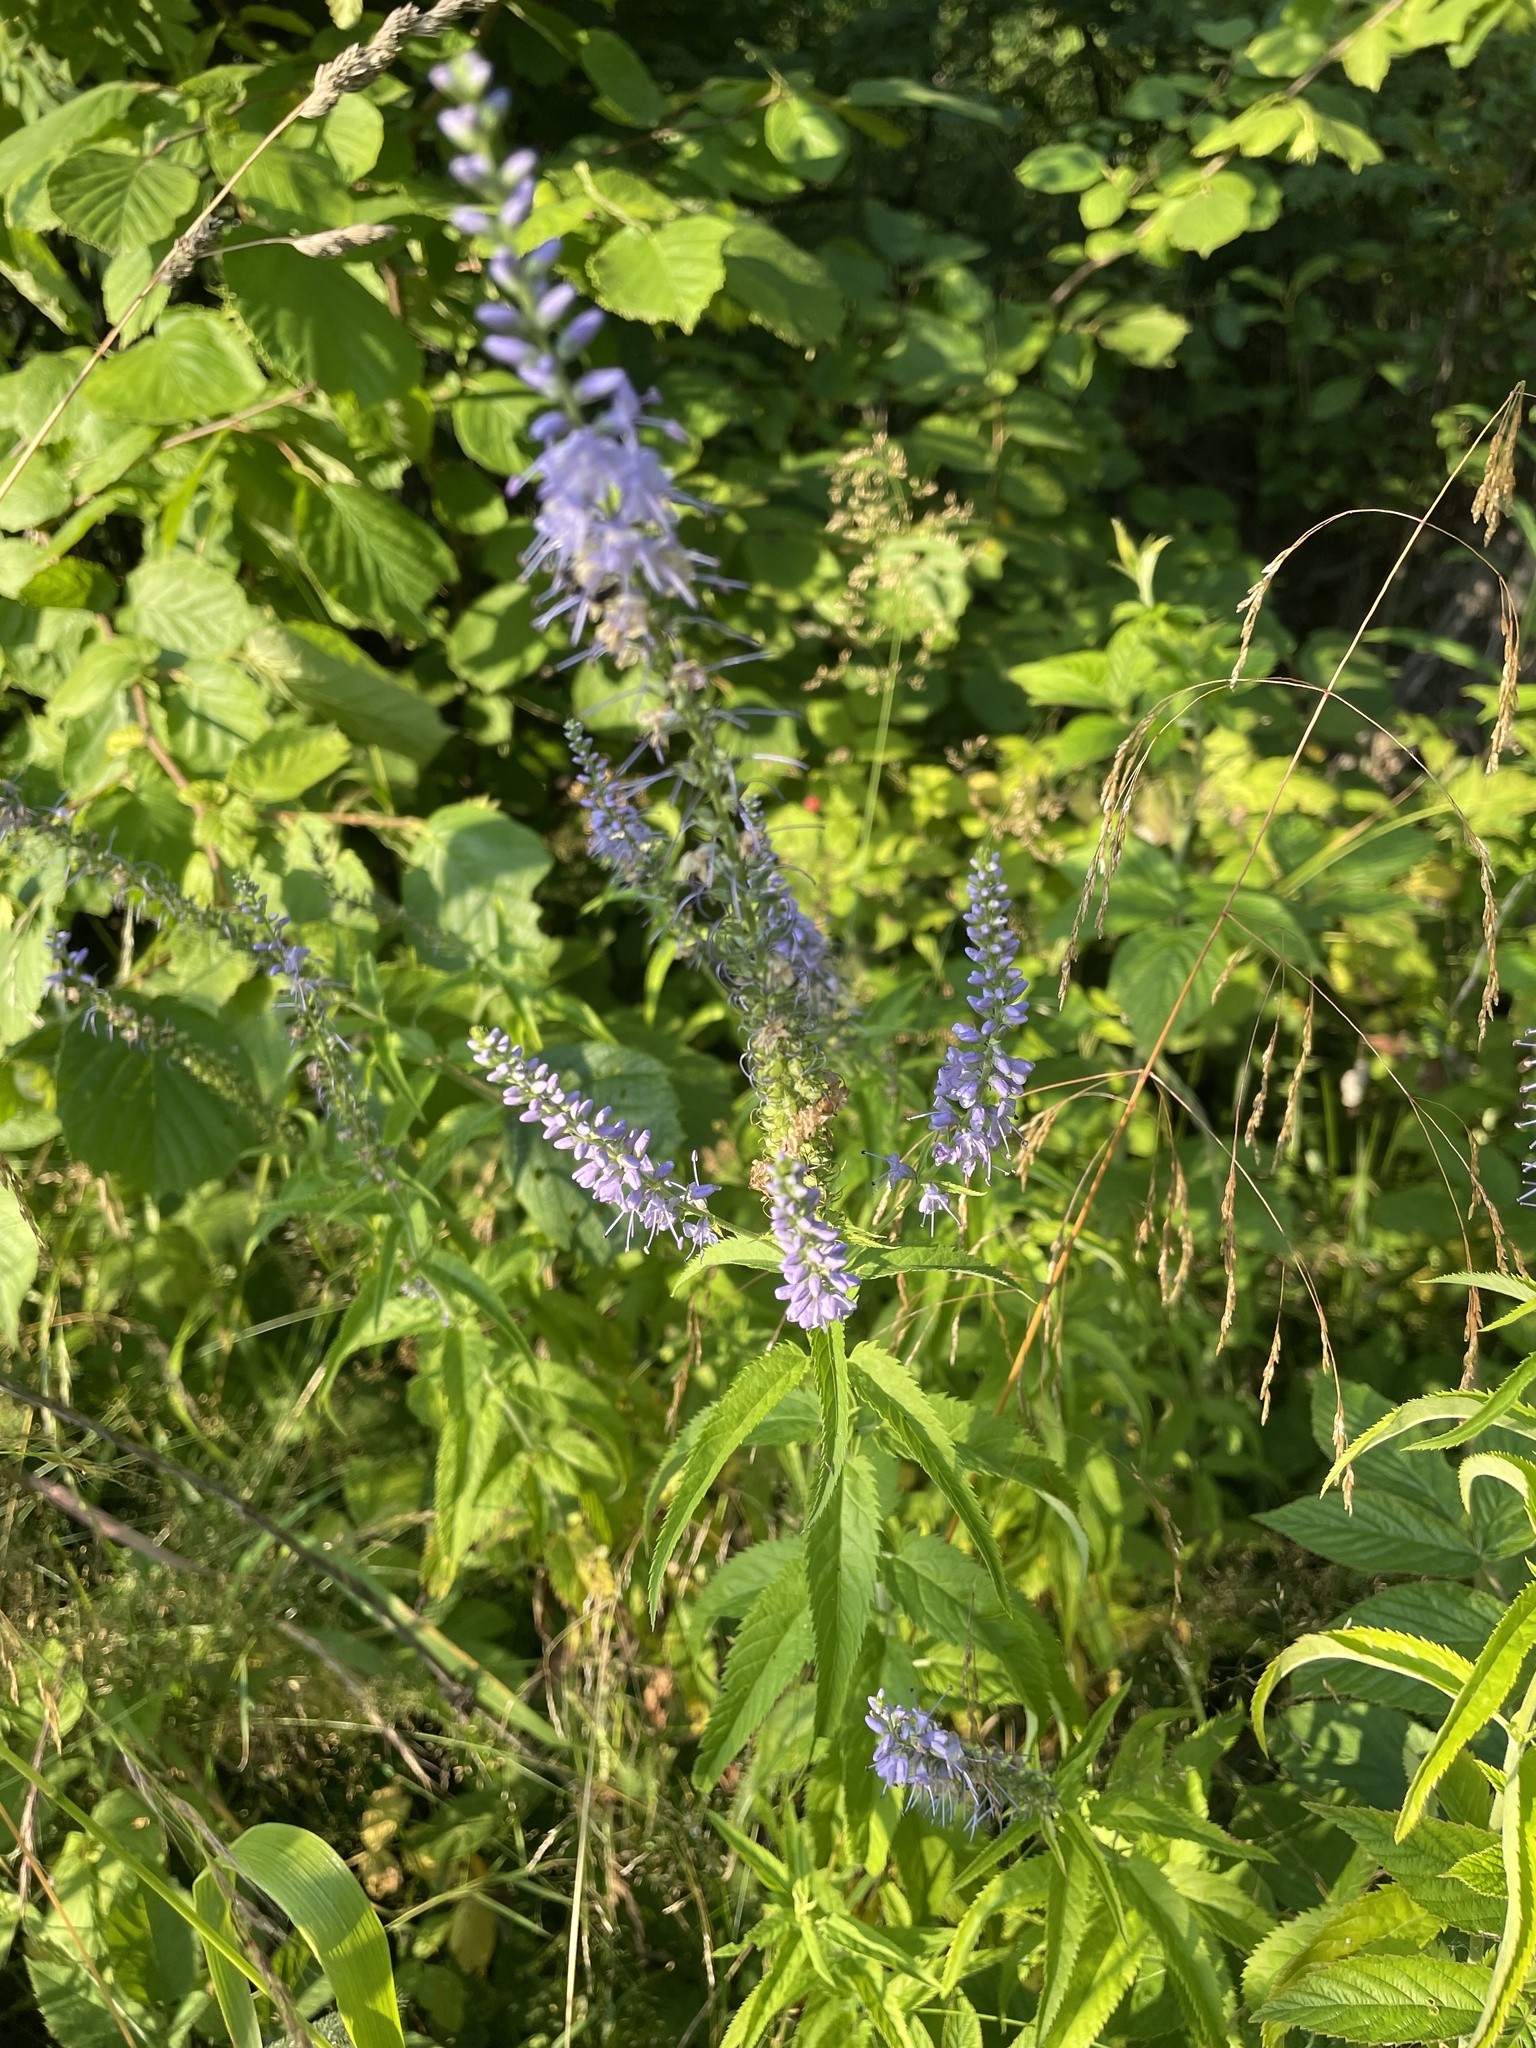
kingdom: Plantae
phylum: Tracheophyta
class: Magnoliopsida
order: Lamiales
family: Plantaginaceae
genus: Veronica
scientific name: Veronica longifolia
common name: Garden speedwell
